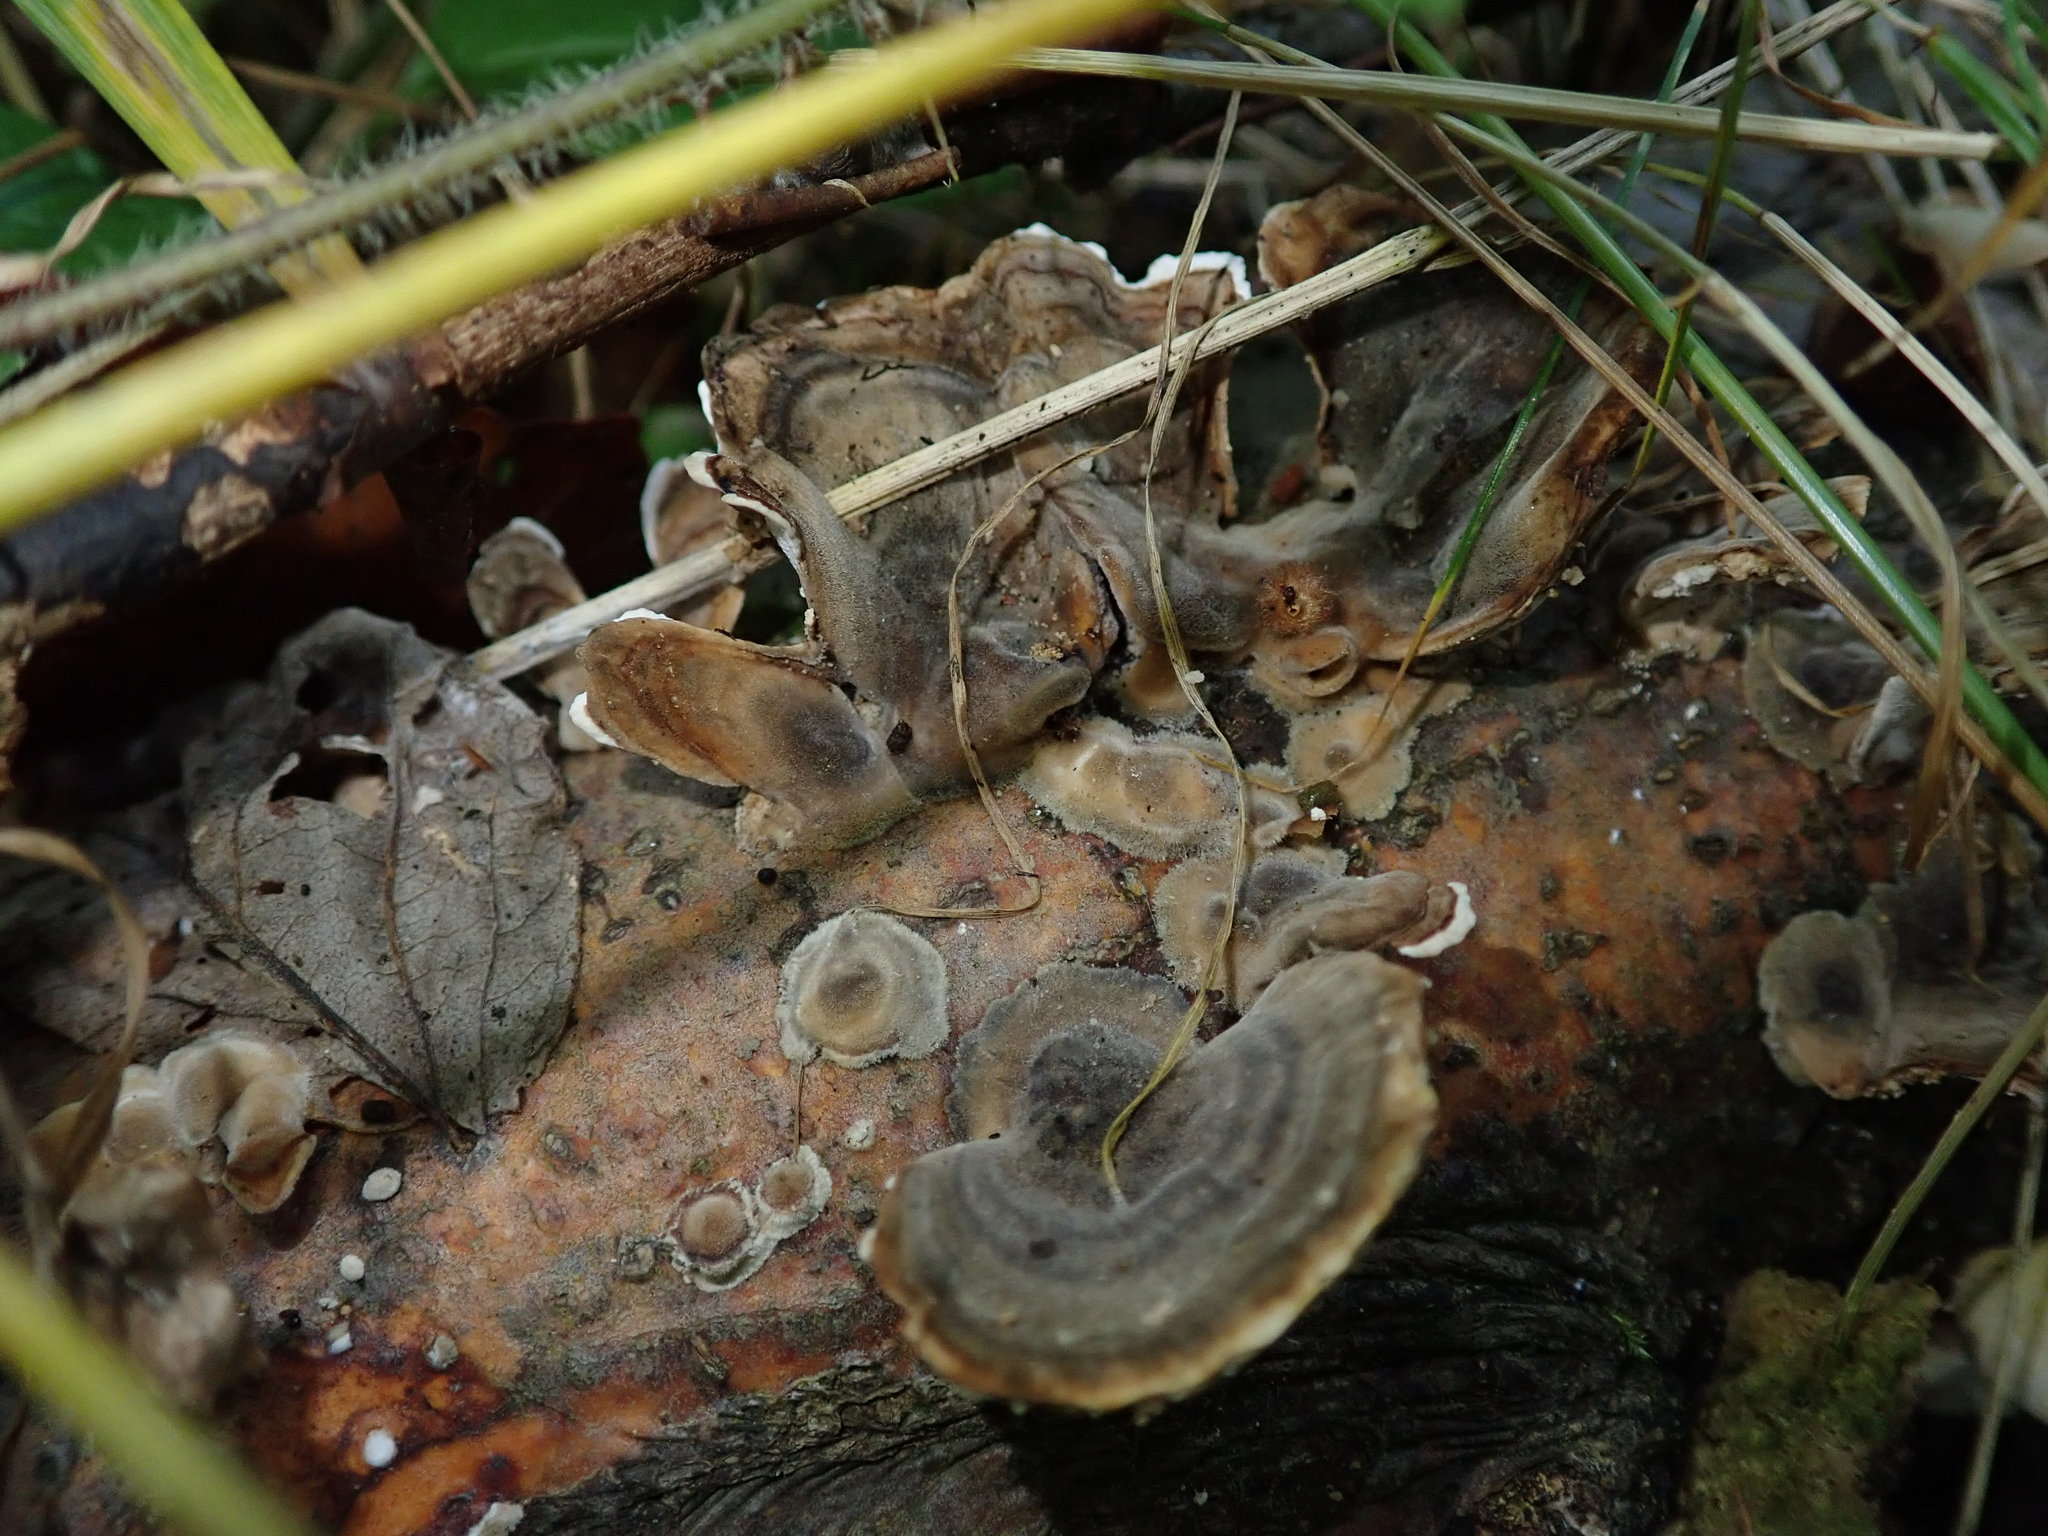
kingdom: Fungi
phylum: Basidiomycota
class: Agaricomycetes
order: Polyporales
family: Polyporaceae
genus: Trametes
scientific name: Trametes versicolor
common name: Turkeytail
